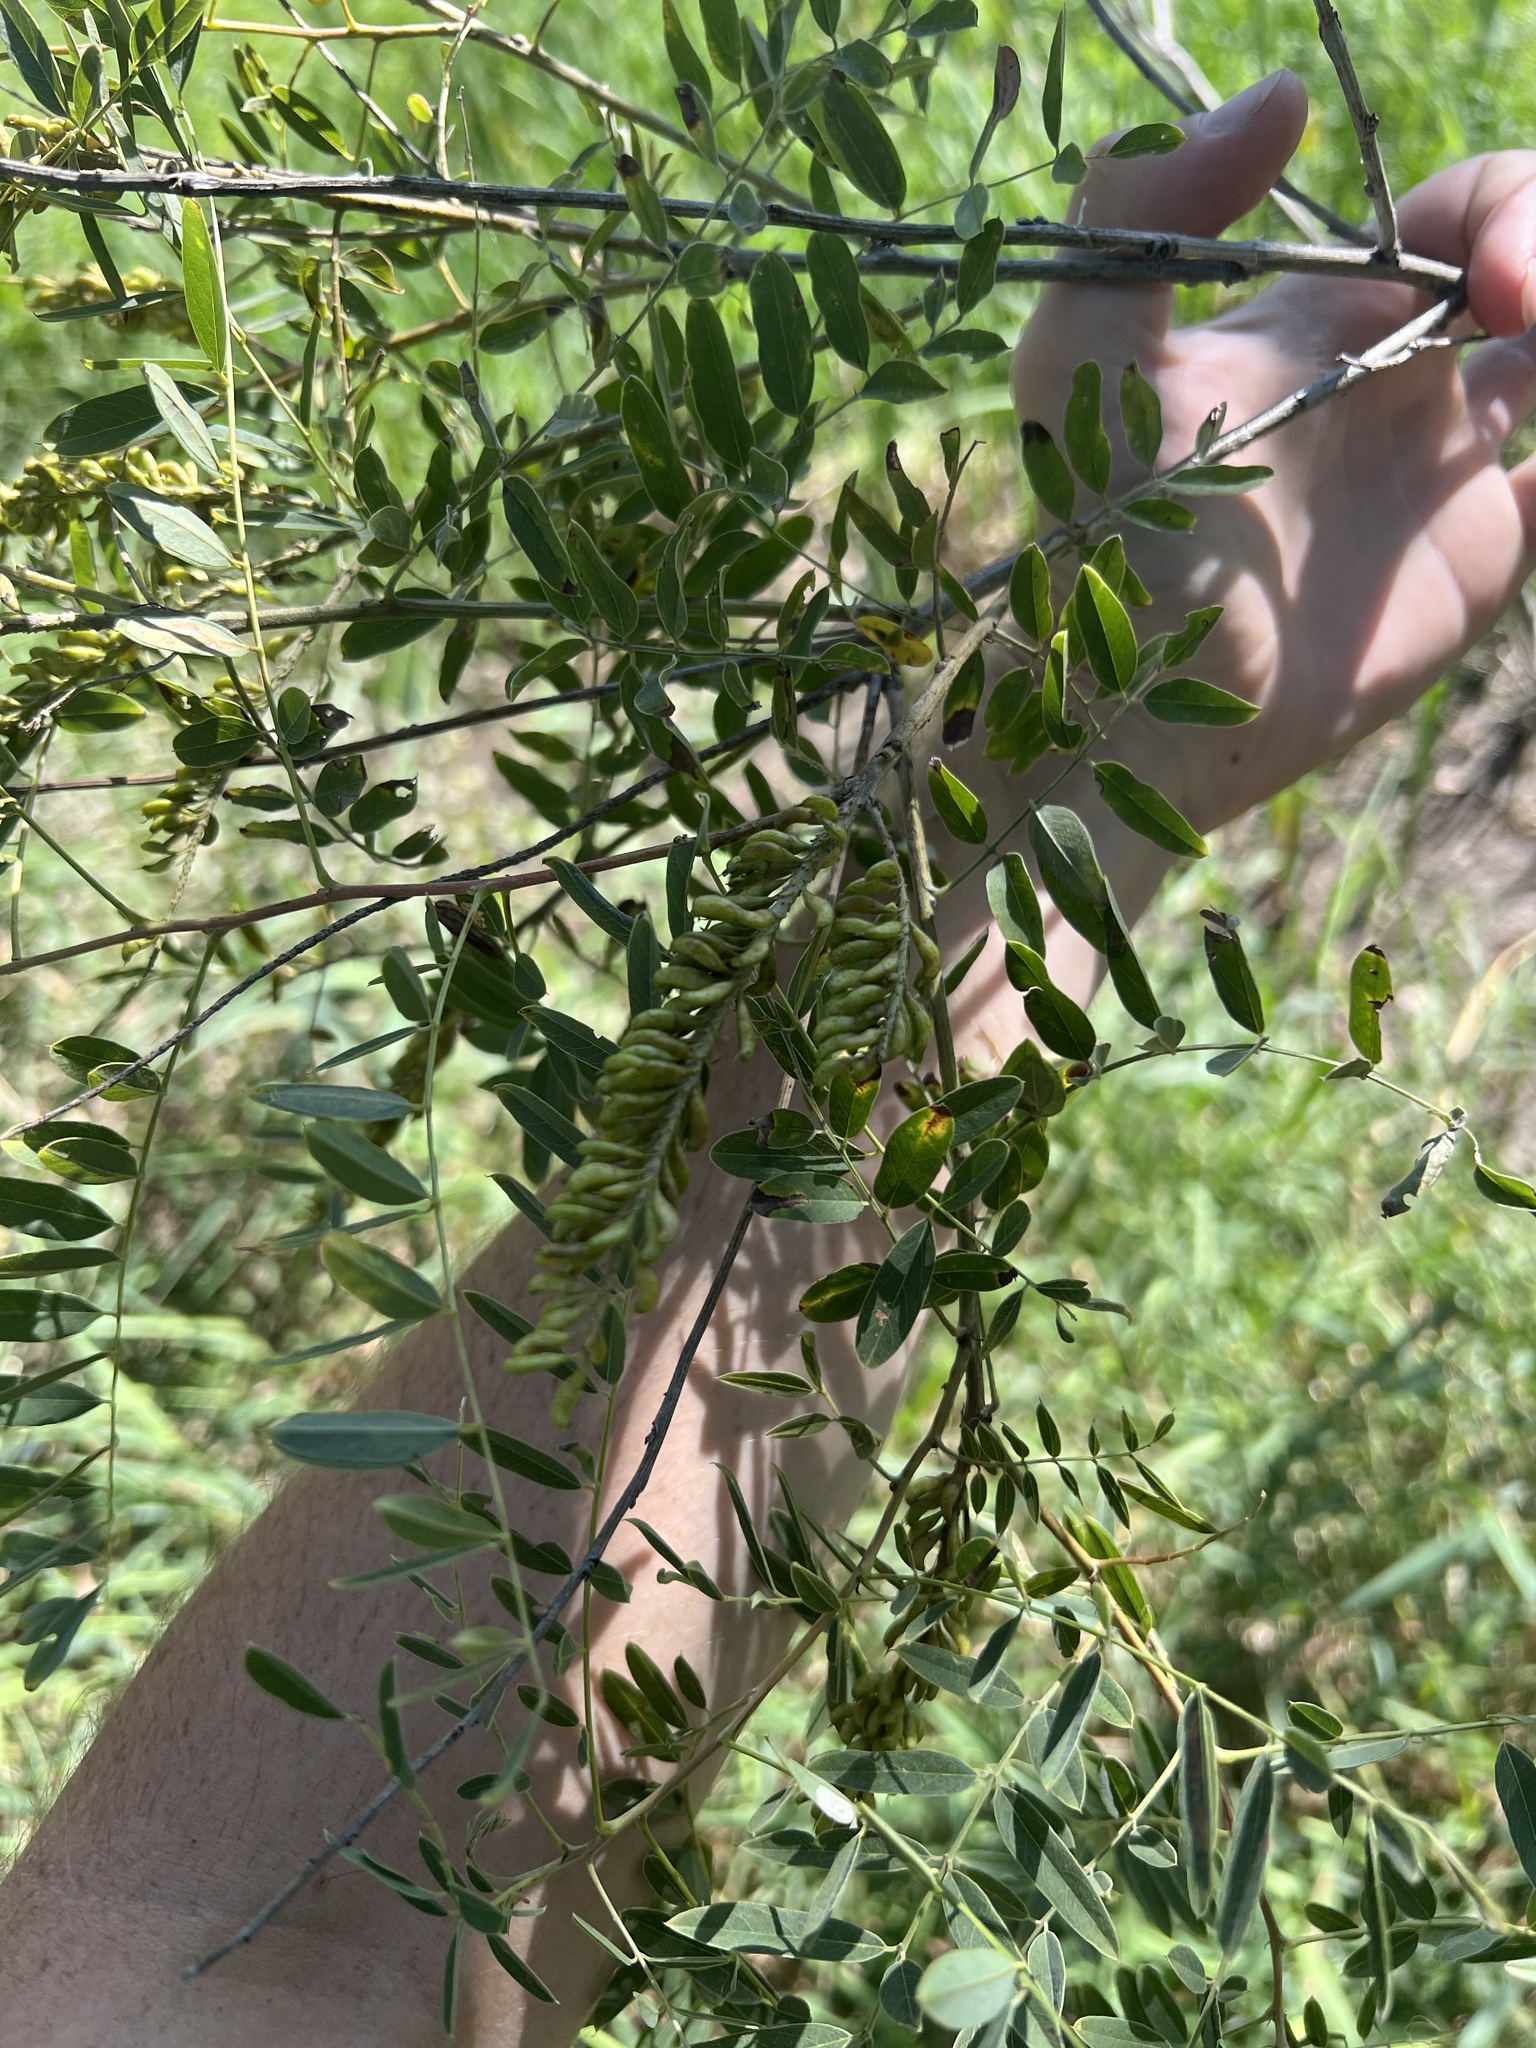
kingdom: Plantae
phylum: Tracheophyta
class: Magnoliopsida
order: Fabales
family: Fabaceae
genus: Amorpha
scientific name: Amorpha fruticosa
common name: False indigo
